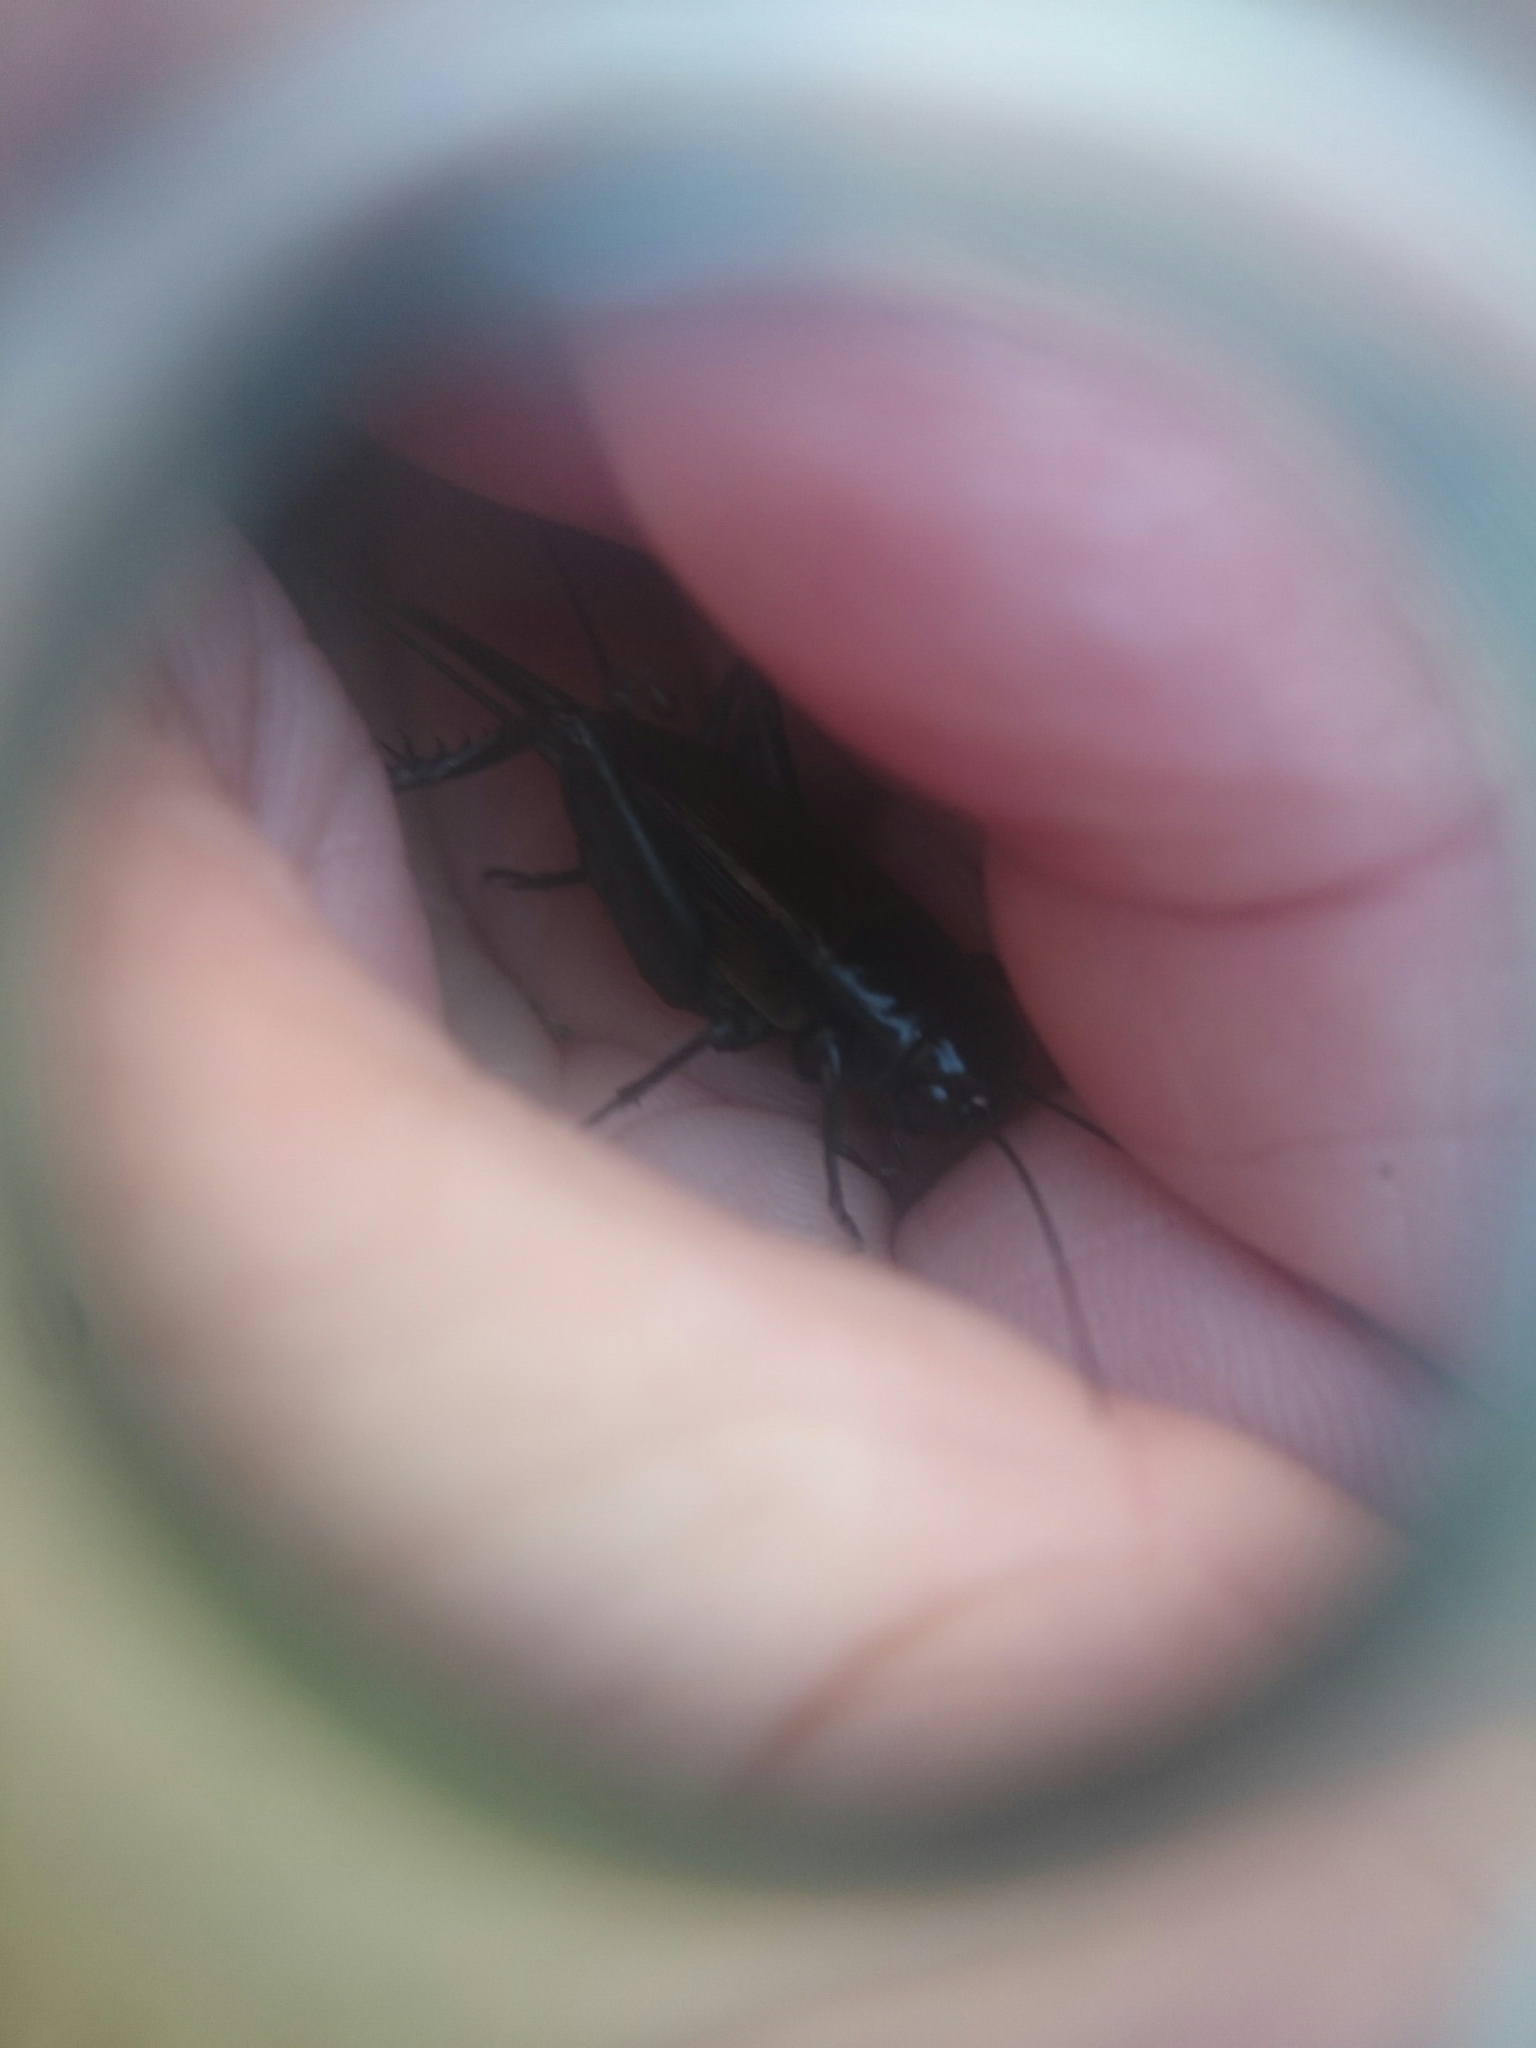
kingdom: Animalia
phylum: Arthropoda
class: Insecta
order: Orthoptera
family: Gryllidae
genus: Teleogryllus
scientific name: Teleogryllus commodus
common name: Black field cricket
